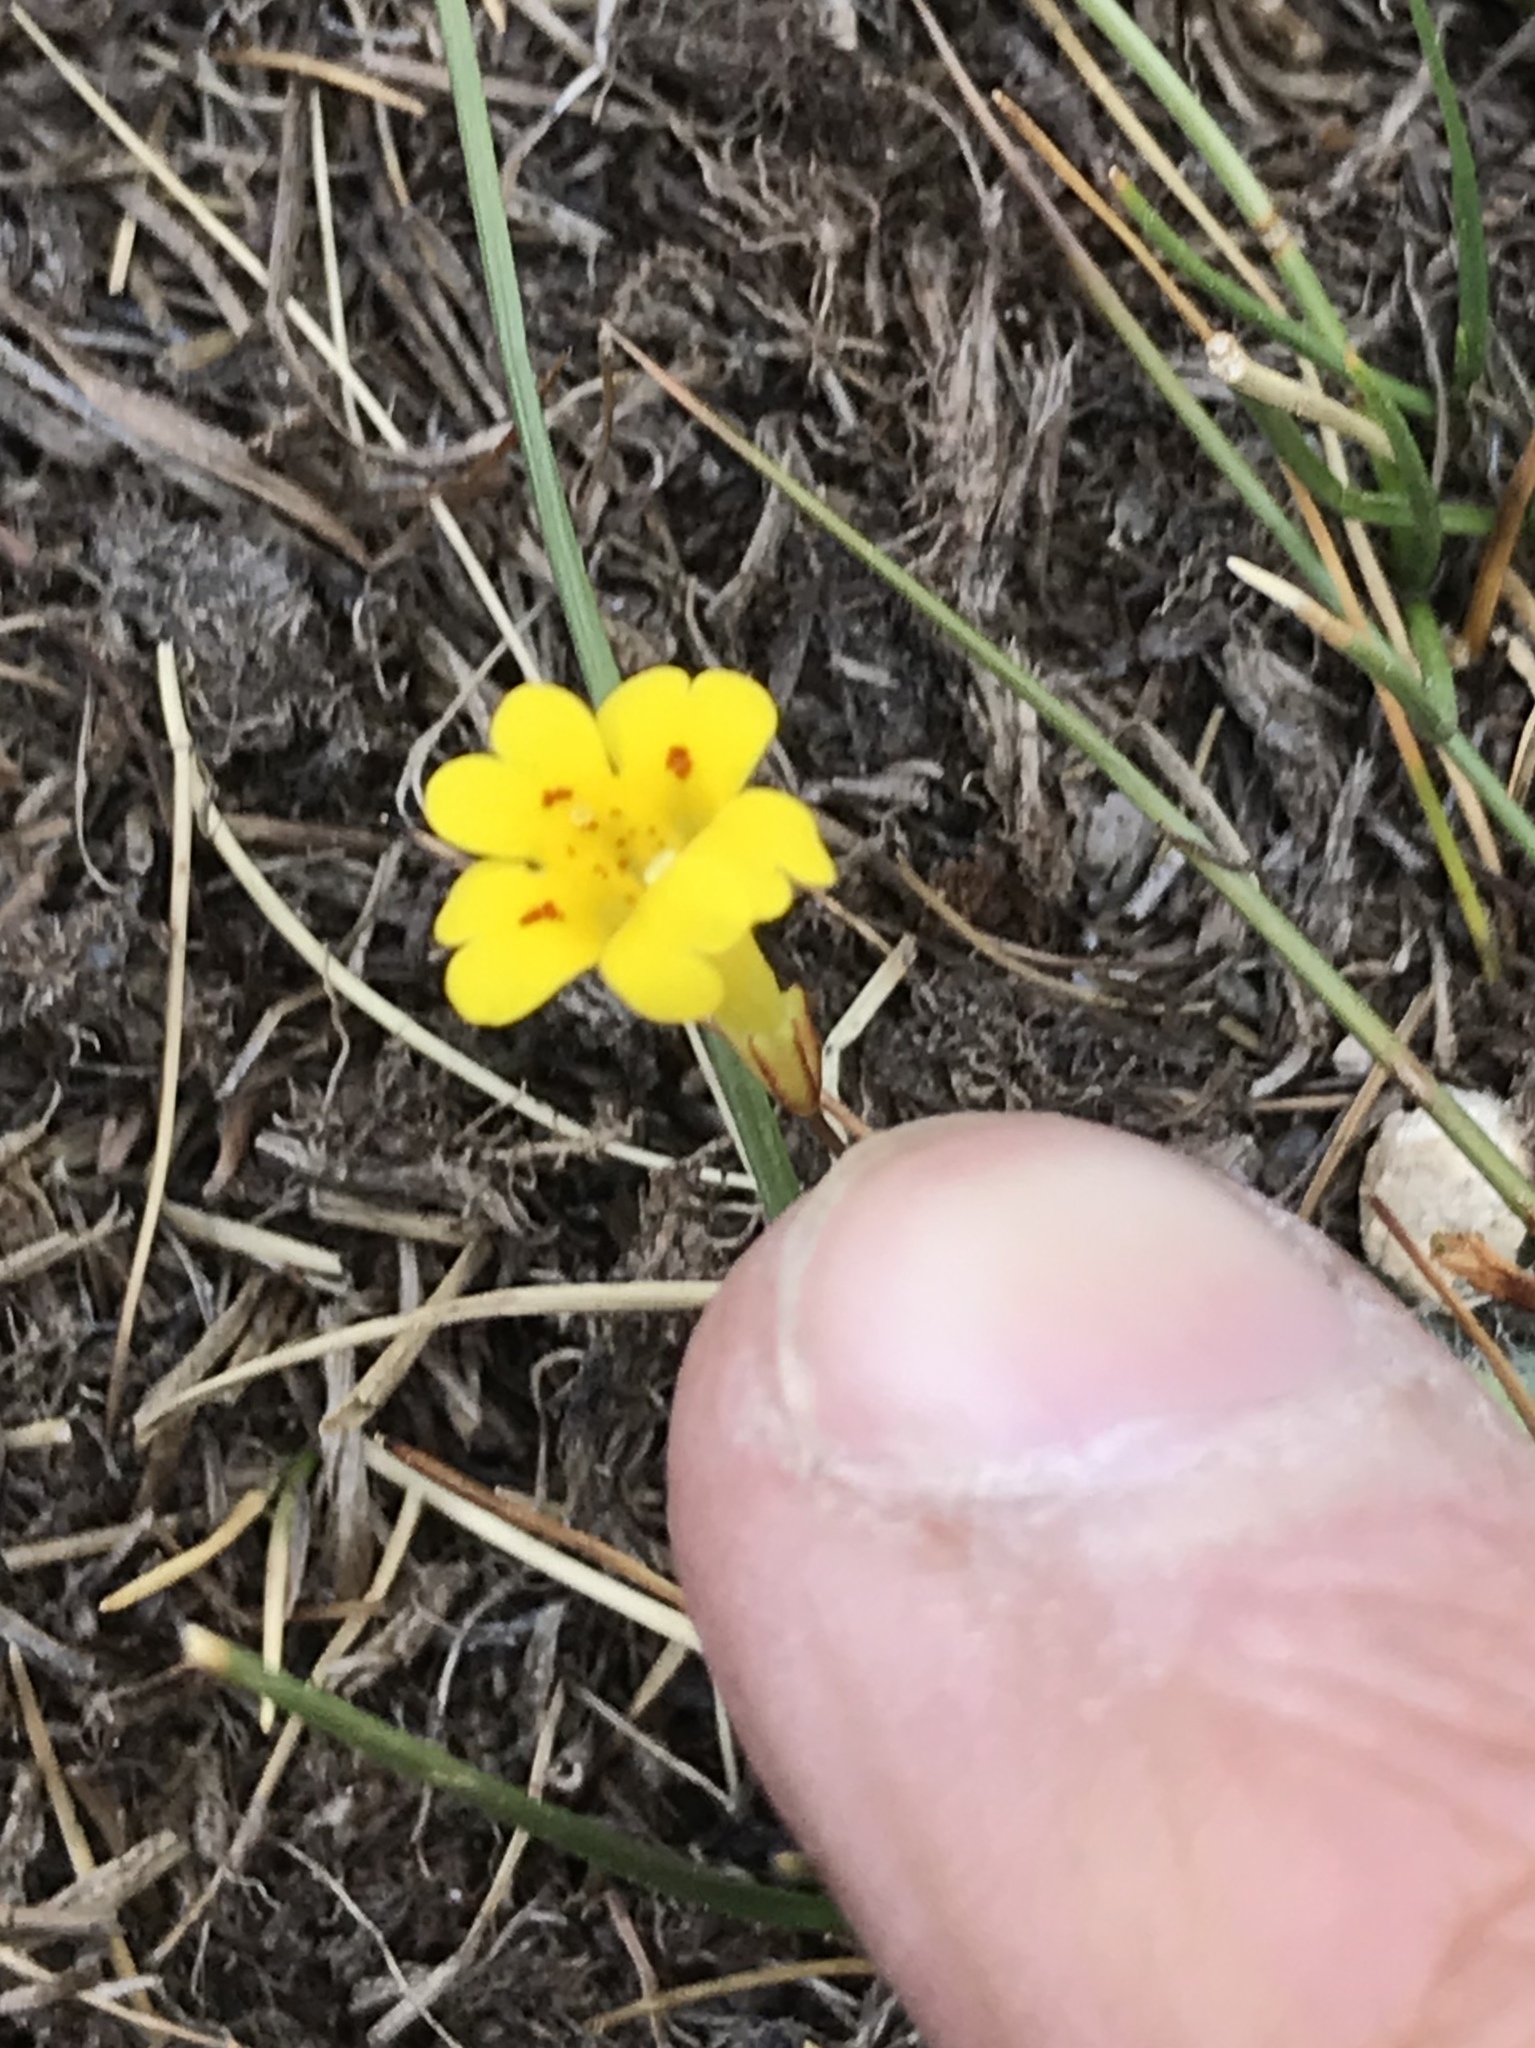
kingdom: Plantae
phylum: Tracheophyta
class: Magnoliopsida
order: Lamiales
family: Phrymaceae
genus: Erythranthe
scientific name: Erythranthe primuloides
